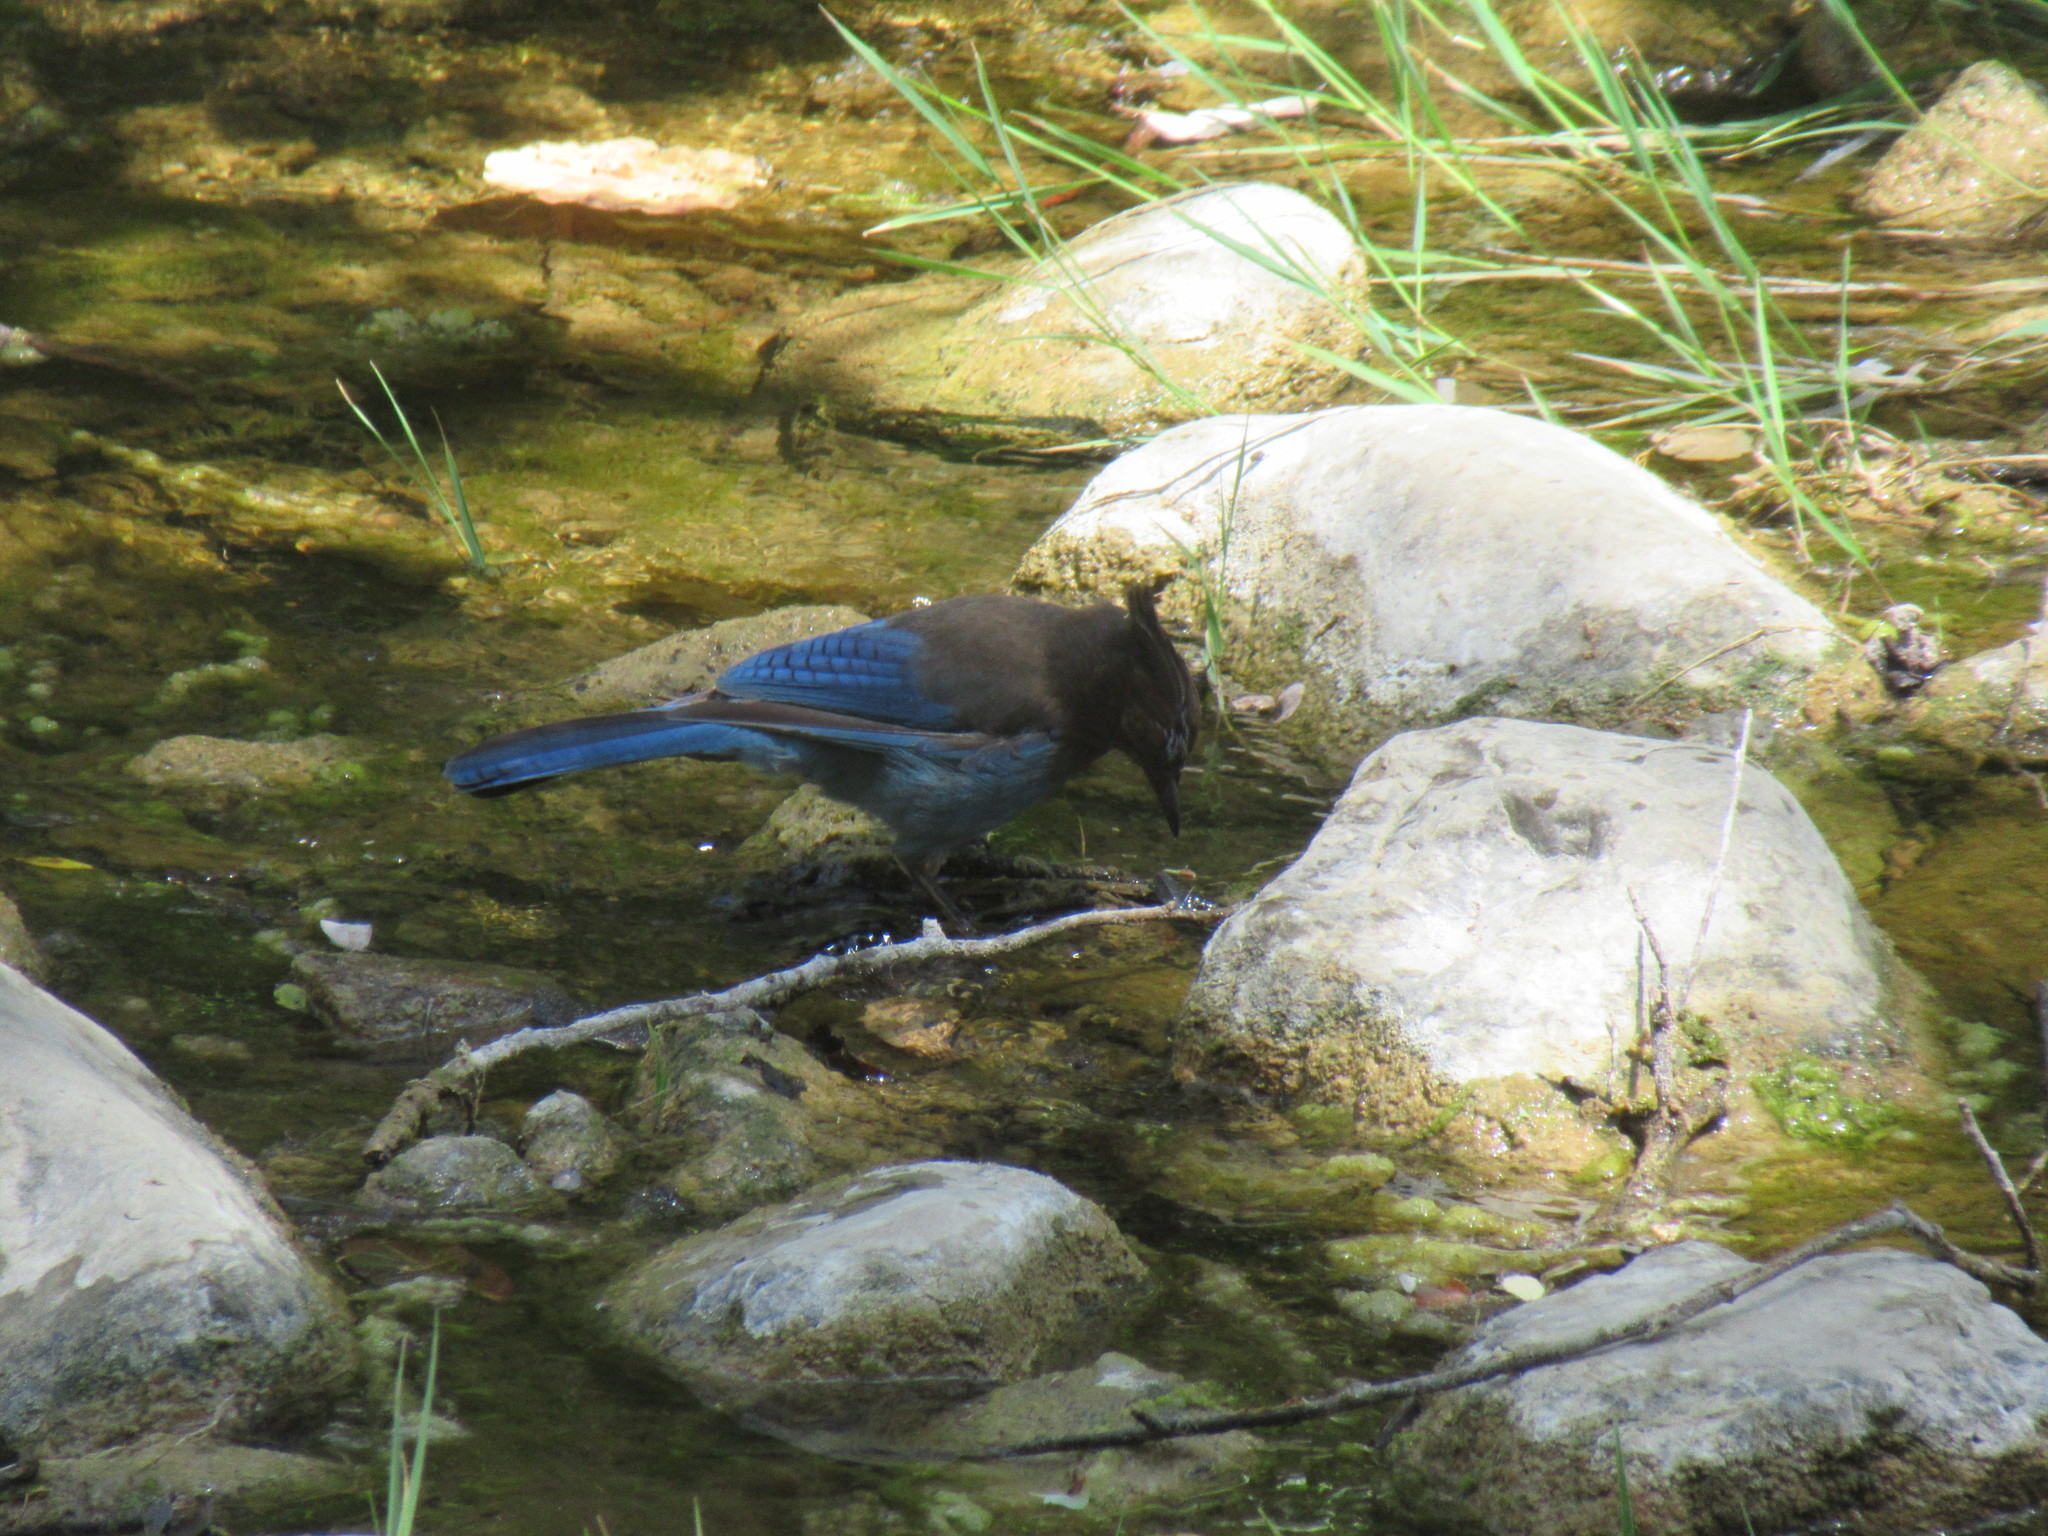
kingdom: Animalia
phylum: Chordata
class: Aves
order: Passeriformes
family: Corvidae
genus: Cyanocitta
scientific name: Cyanocitta stelleri
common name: Steller's jay
